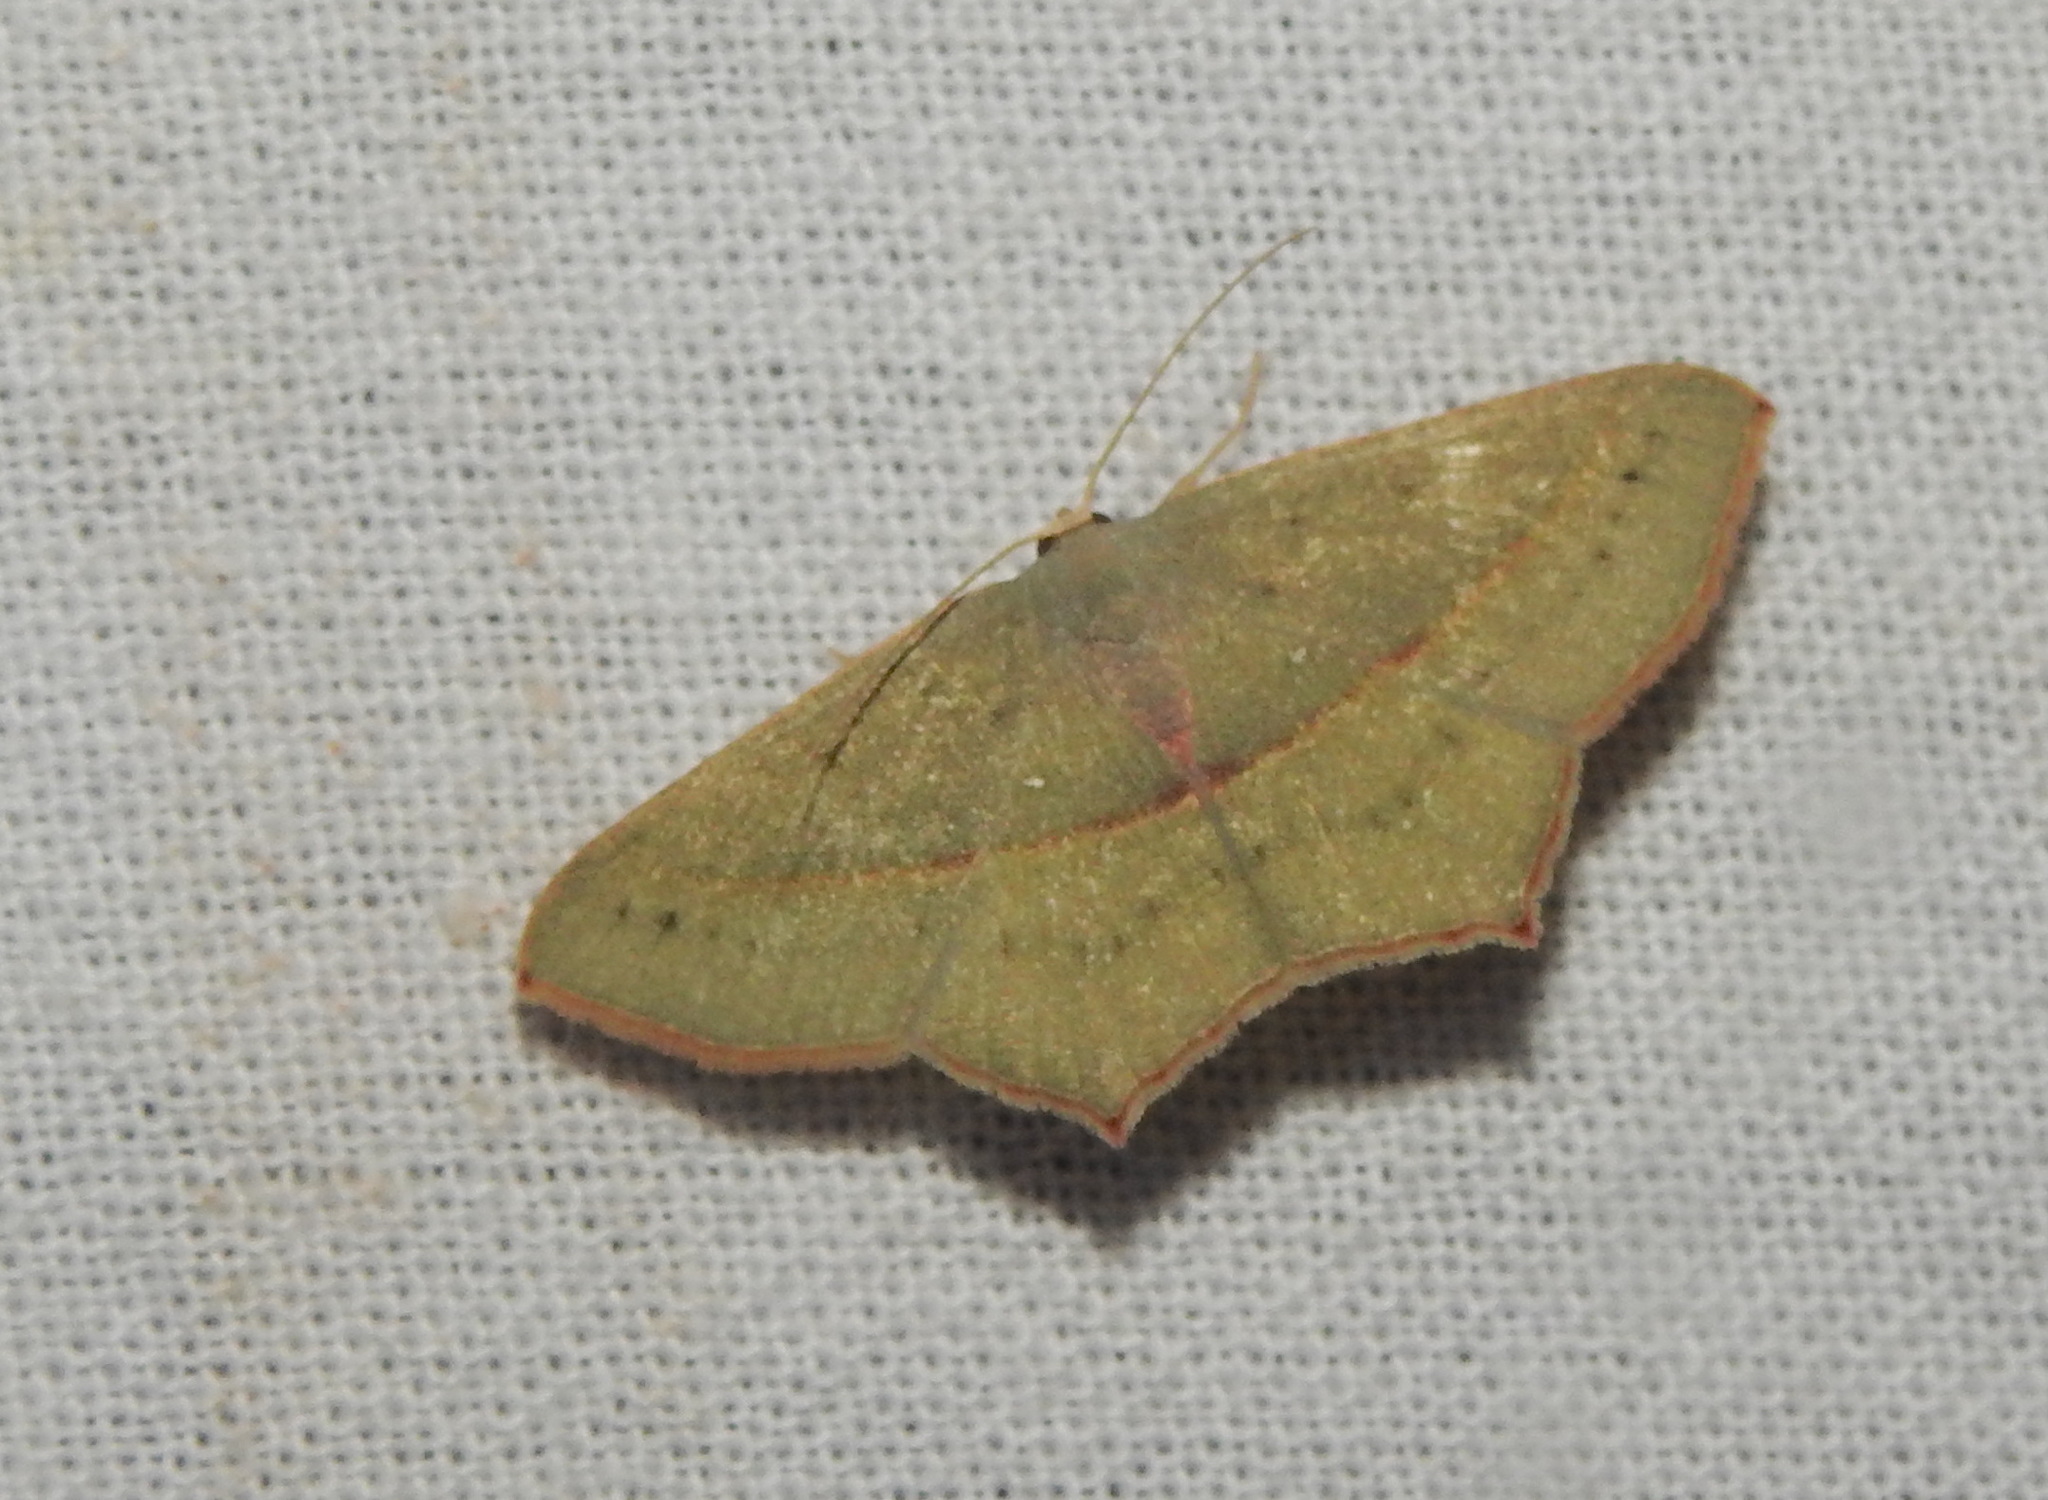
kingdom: Animalia
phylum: Arthropoda
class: Insecta
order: Lepidoptera
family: Geometridae
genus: Traminda
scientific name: Traminda mundissima
